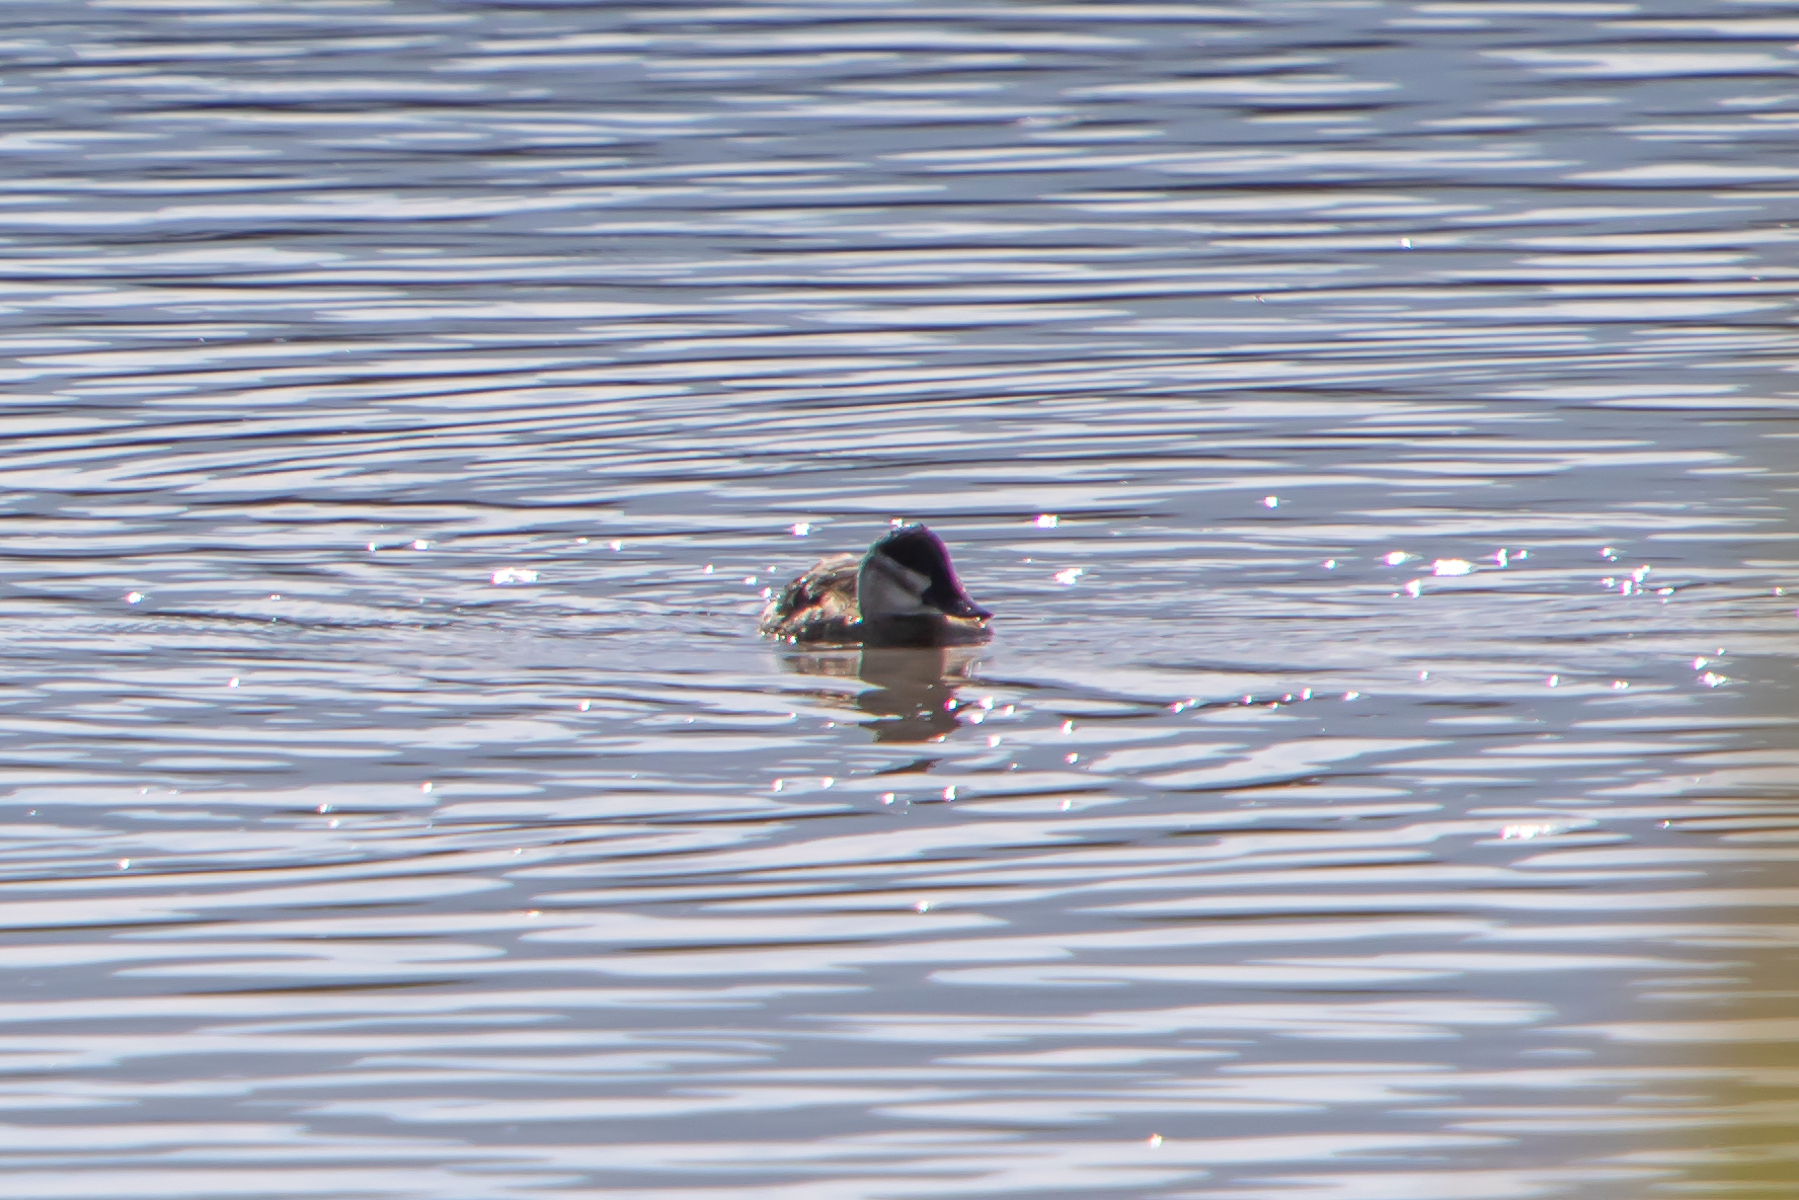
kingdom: Animalia
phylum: Chordata
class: Aves
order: Anseriformes
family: Anatidae
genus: Oxyura
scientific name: Oxyura jamaicensis
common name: Ruddy duck
